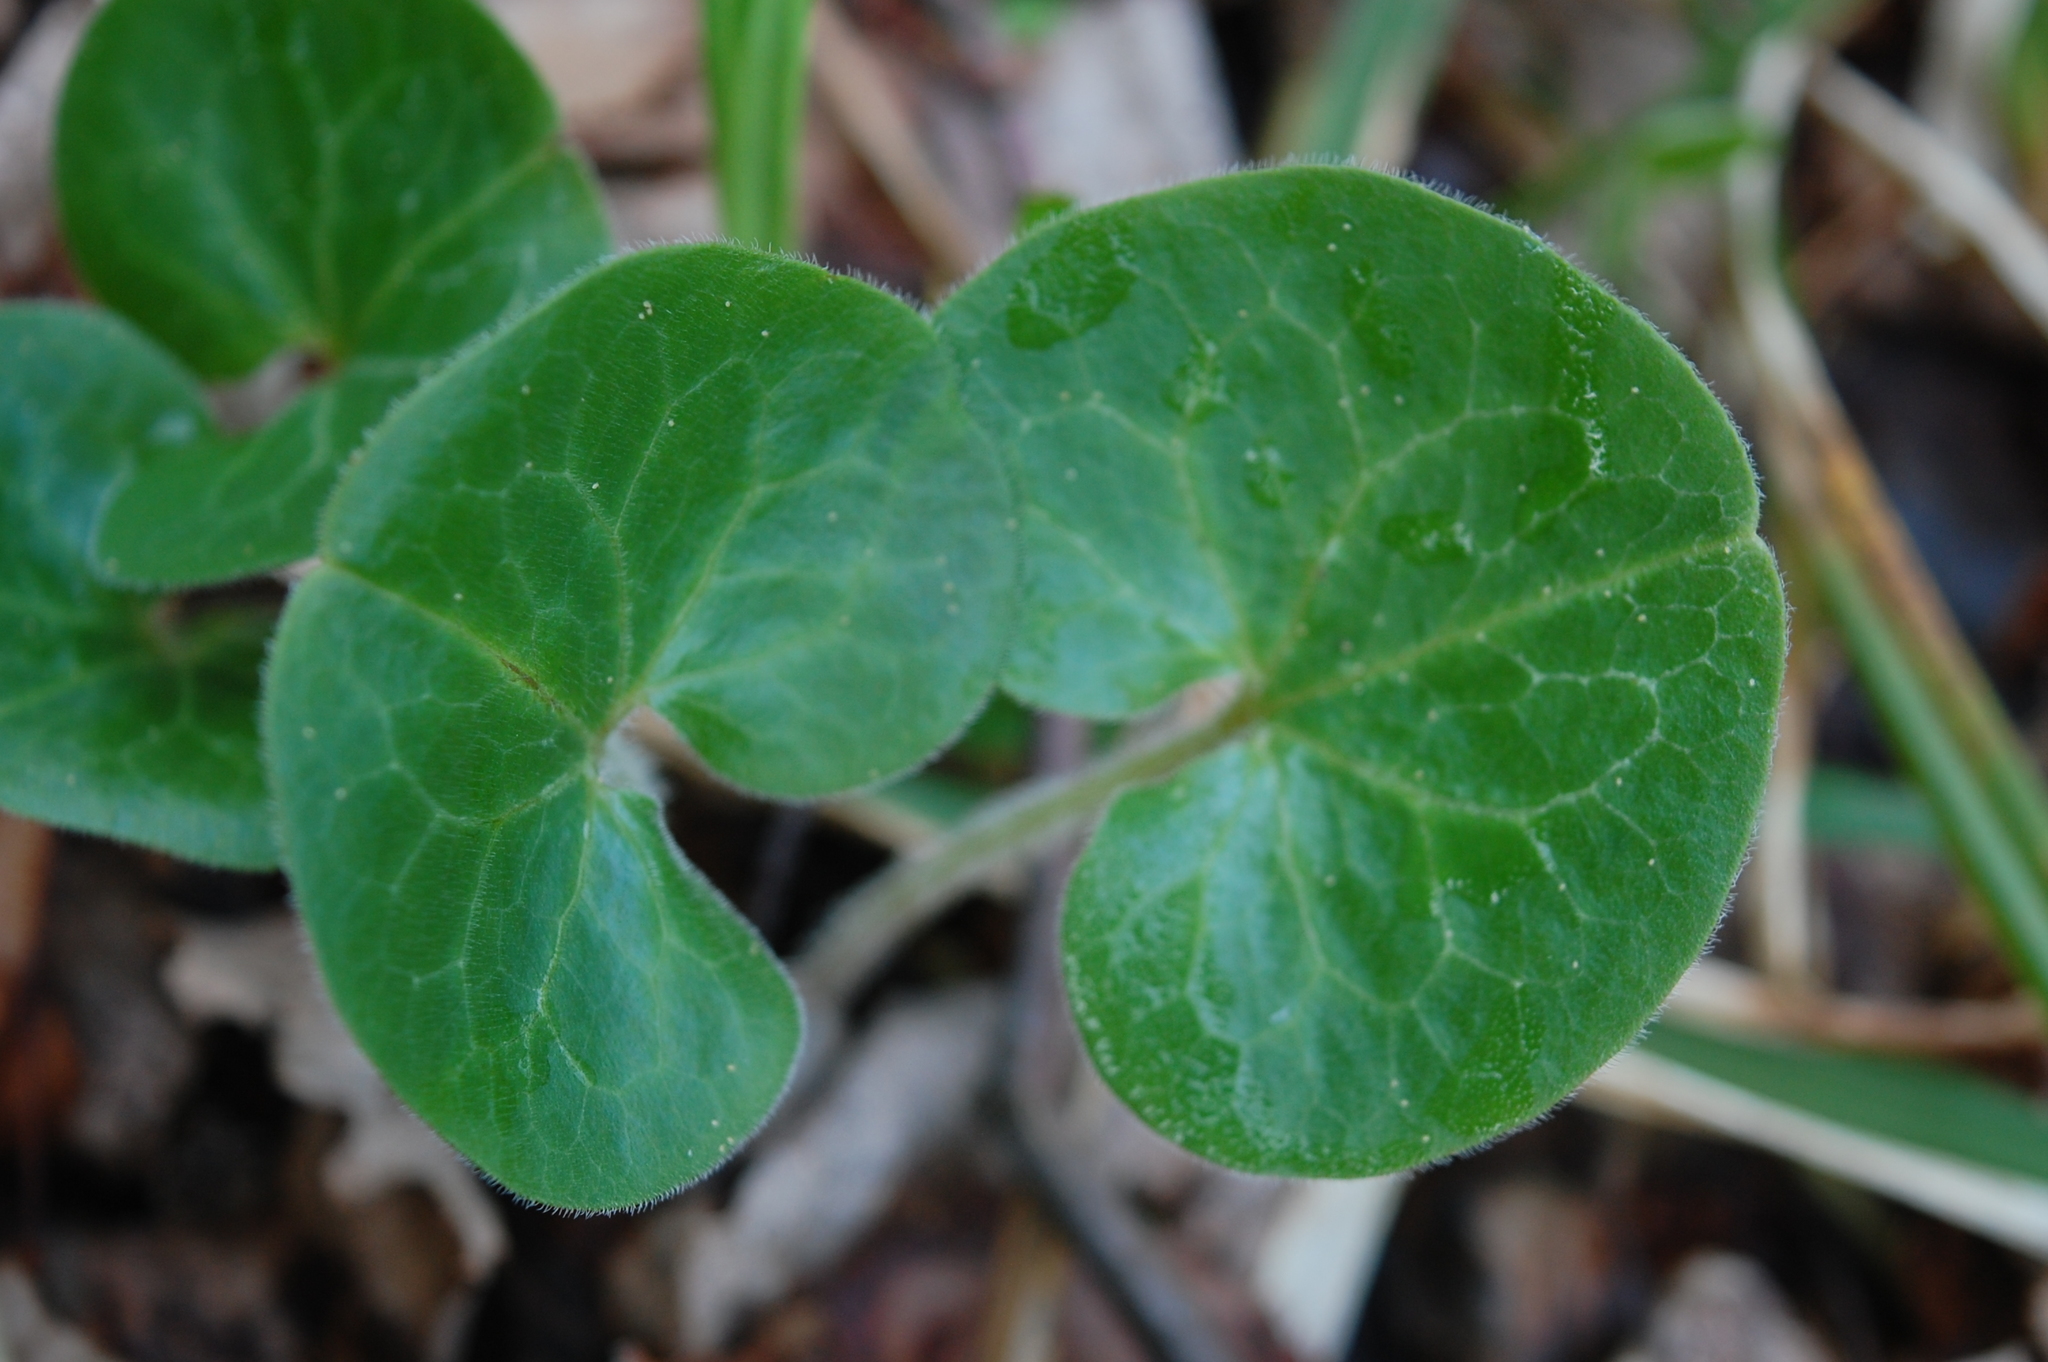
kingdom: Plantae
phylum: Tracheophyta
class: Magnoliopsida
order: Piperales
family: Aristolochiaceae
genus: Asarum
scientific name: Asarum europaeum
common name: Asarabacca
